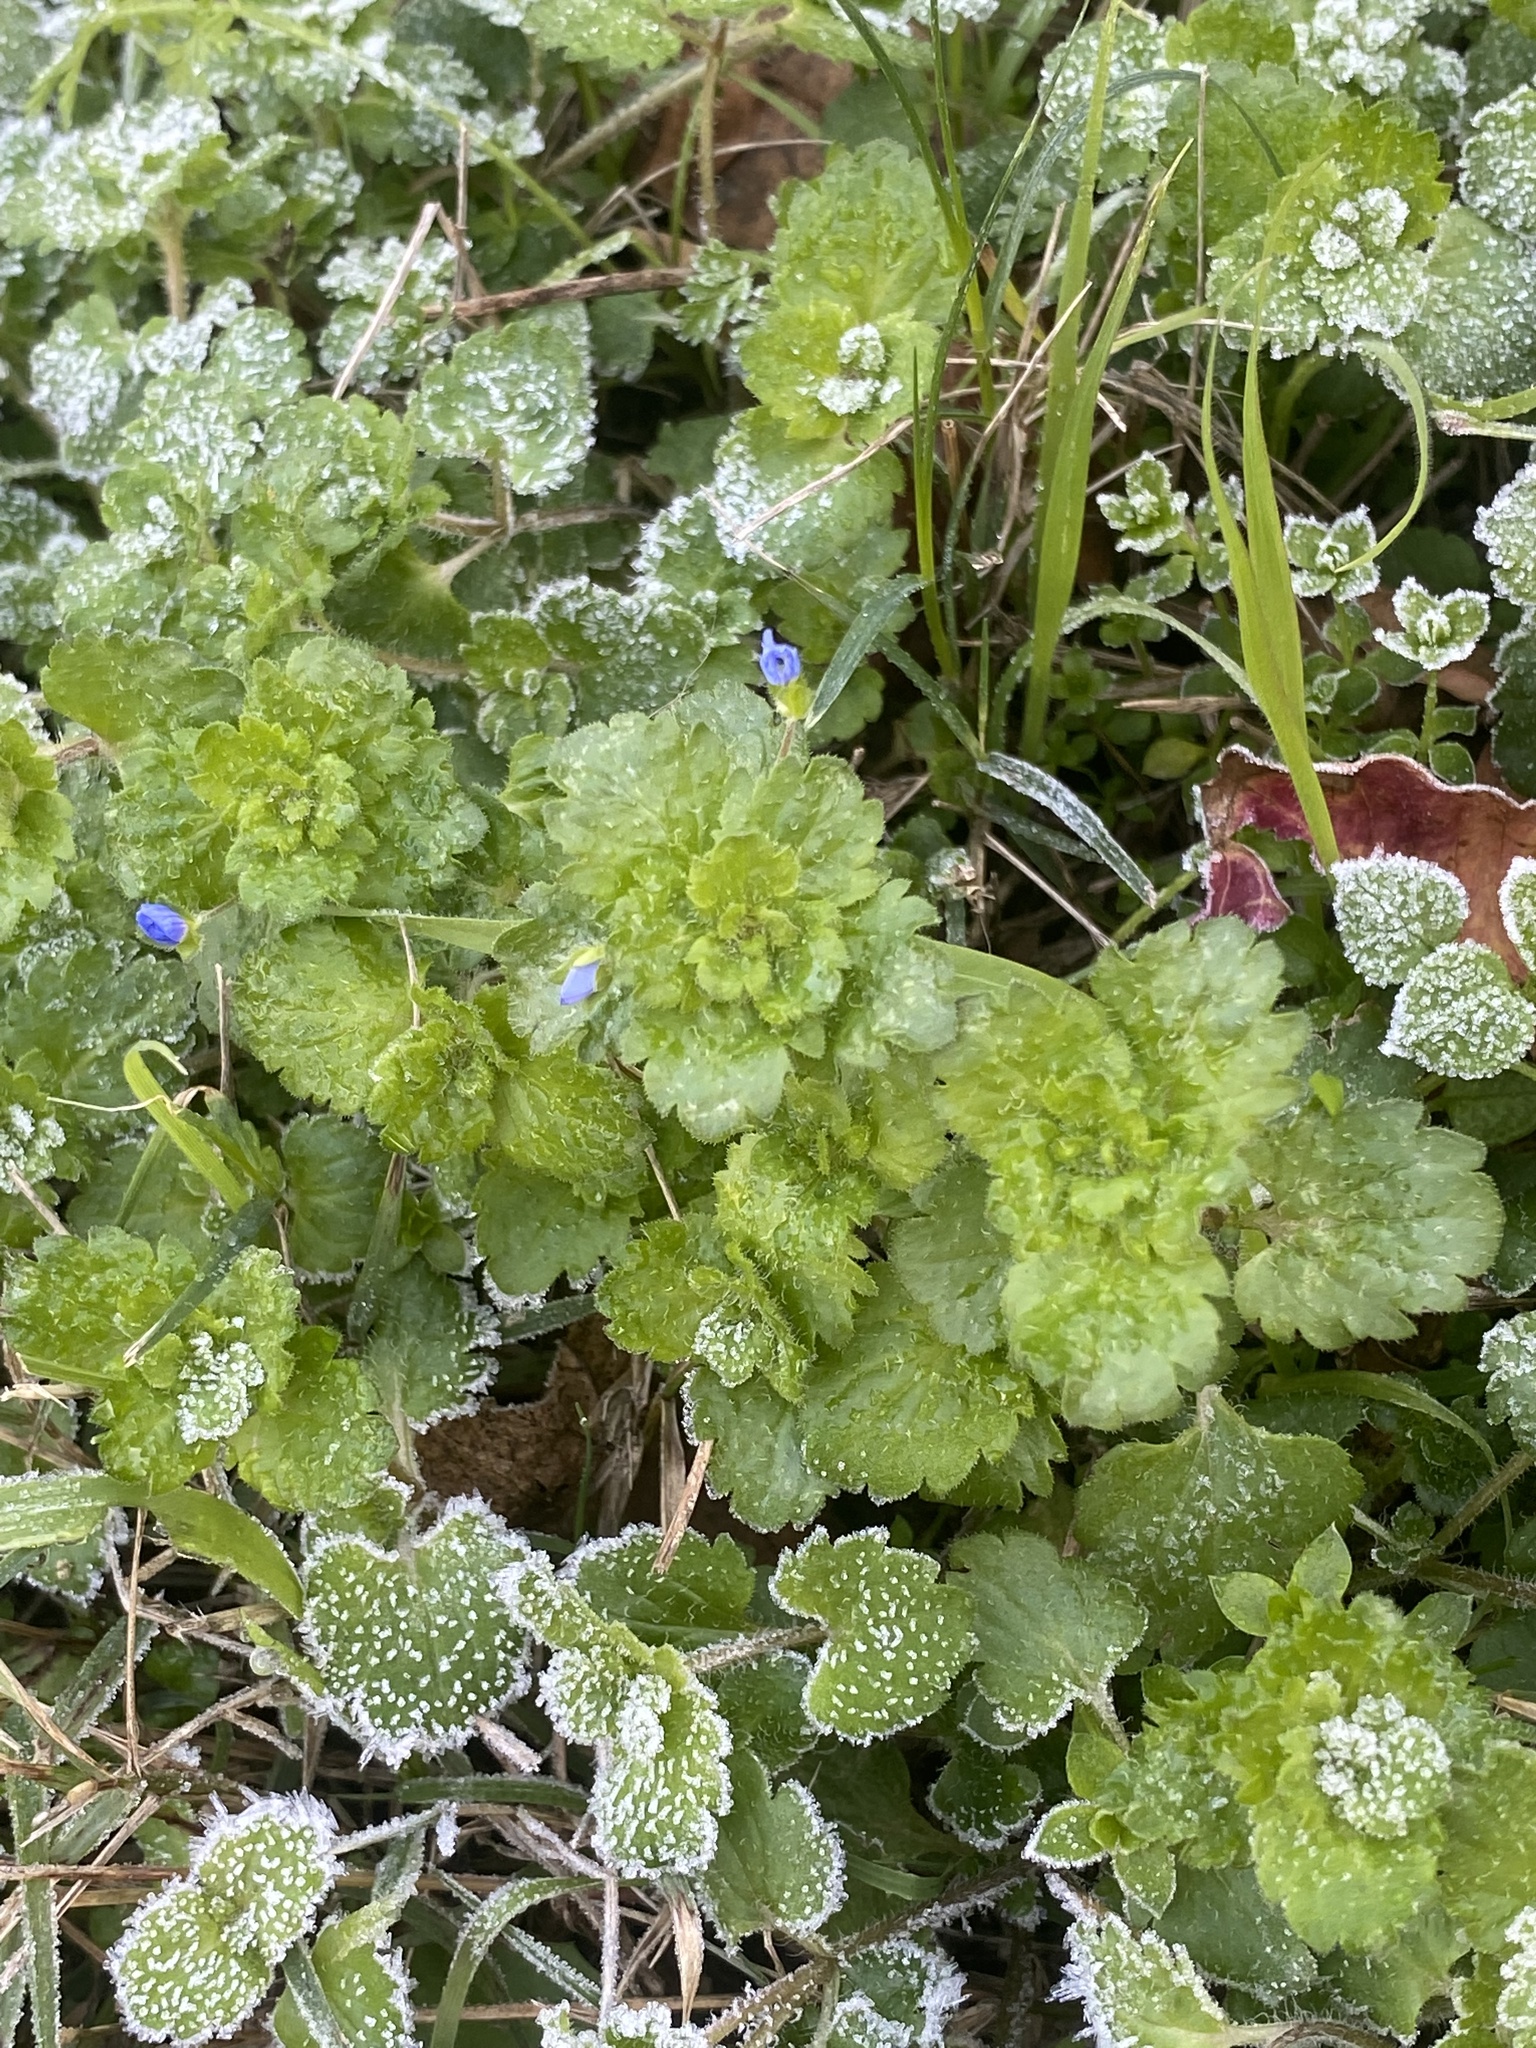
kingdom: Plantae
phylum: Tracheophyta
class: Magnoliopsida
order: Lamiales
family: Plantaginaceae
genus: Veronica
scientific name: Veronica persica
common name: Common field-speedwell
